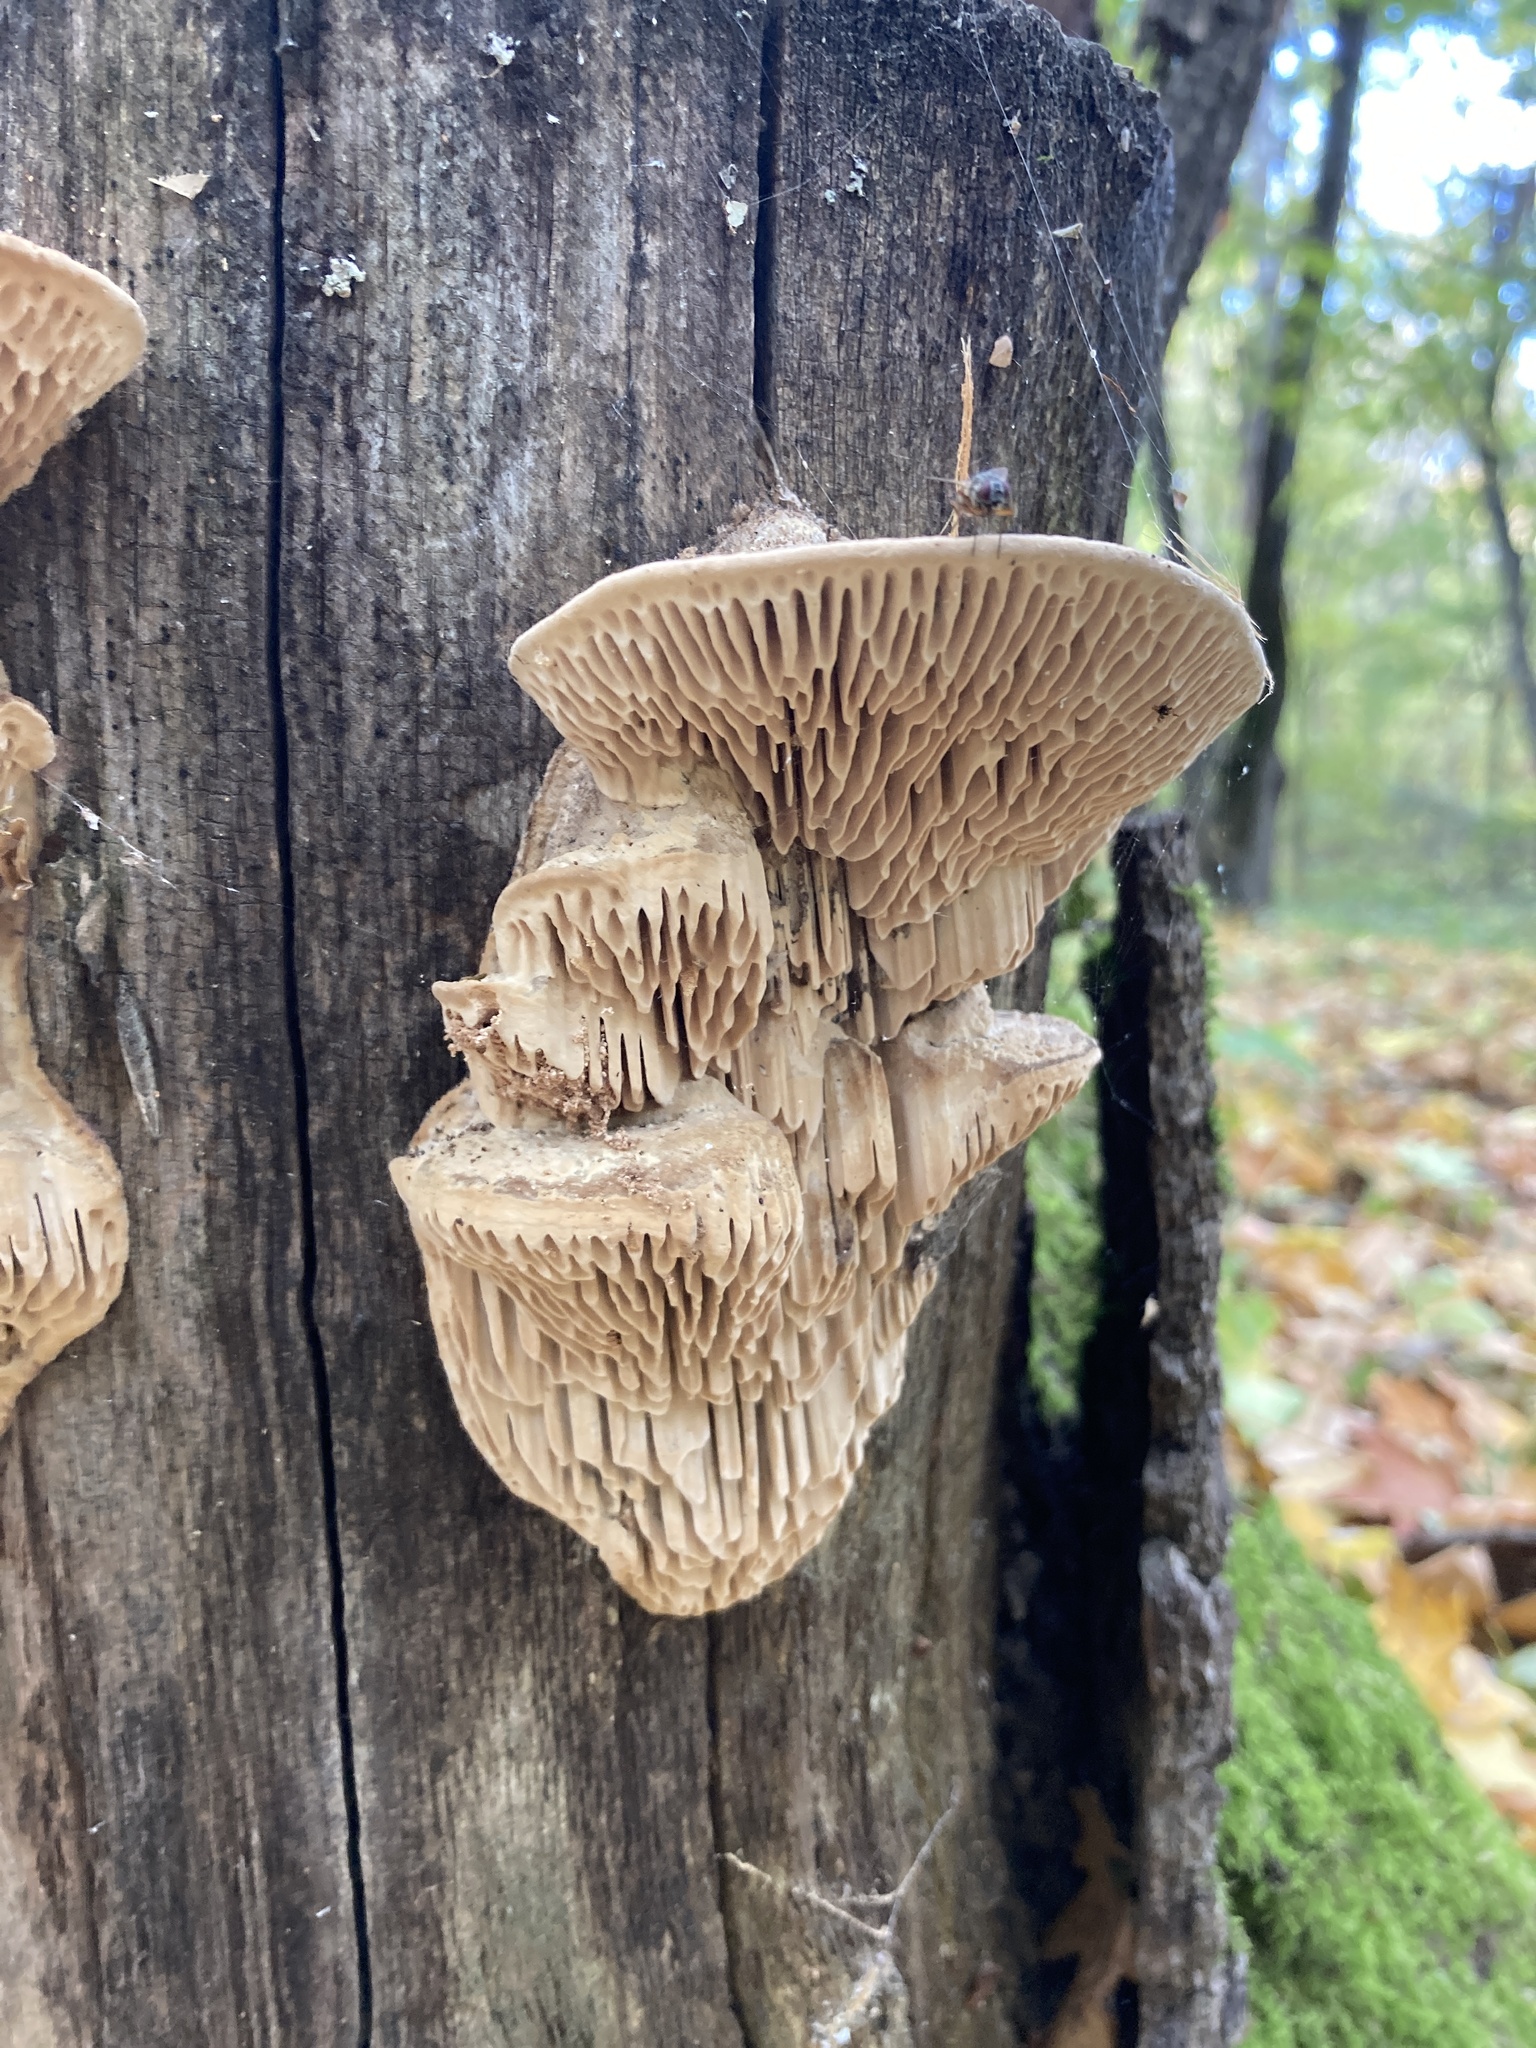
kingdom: Fungi
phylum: Basidiomycota
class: Agaricomycetes
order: Polyporales
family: Fomitopsidaceae
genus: Fomitopsis
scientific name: Fomitopsis
